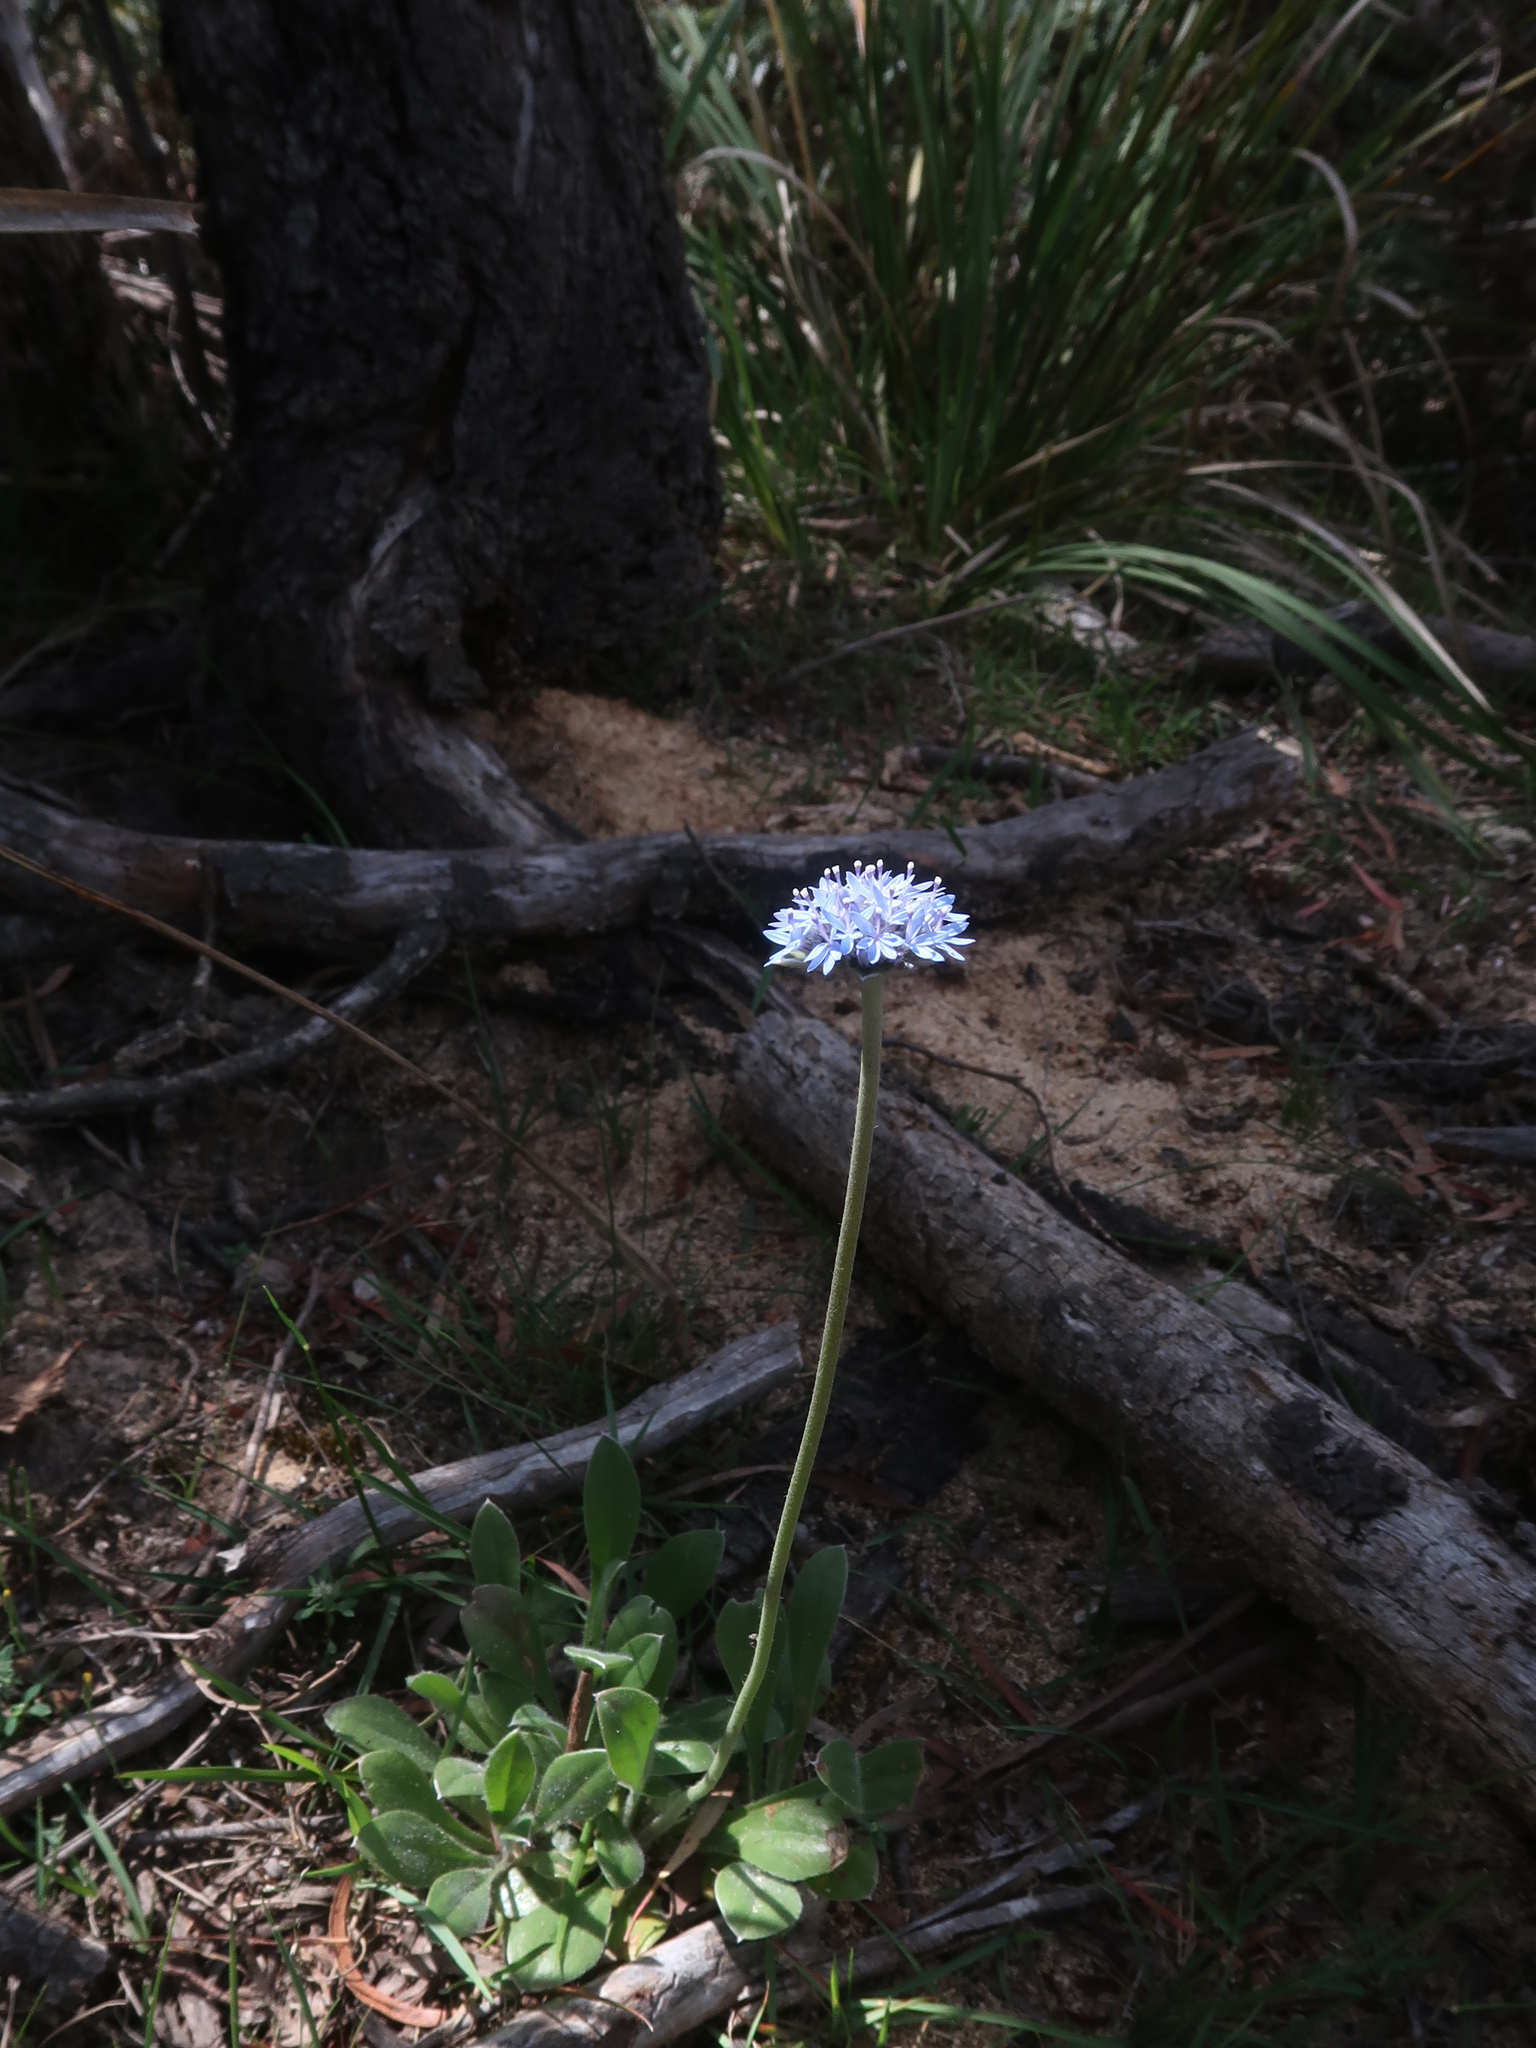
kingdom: Plantae
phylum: Tracheophyta
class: Magnoliopsida
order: Asterales
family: Goodeniaceae
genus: Brunonia
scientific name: Brunonia australis
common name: Blue pincushion
